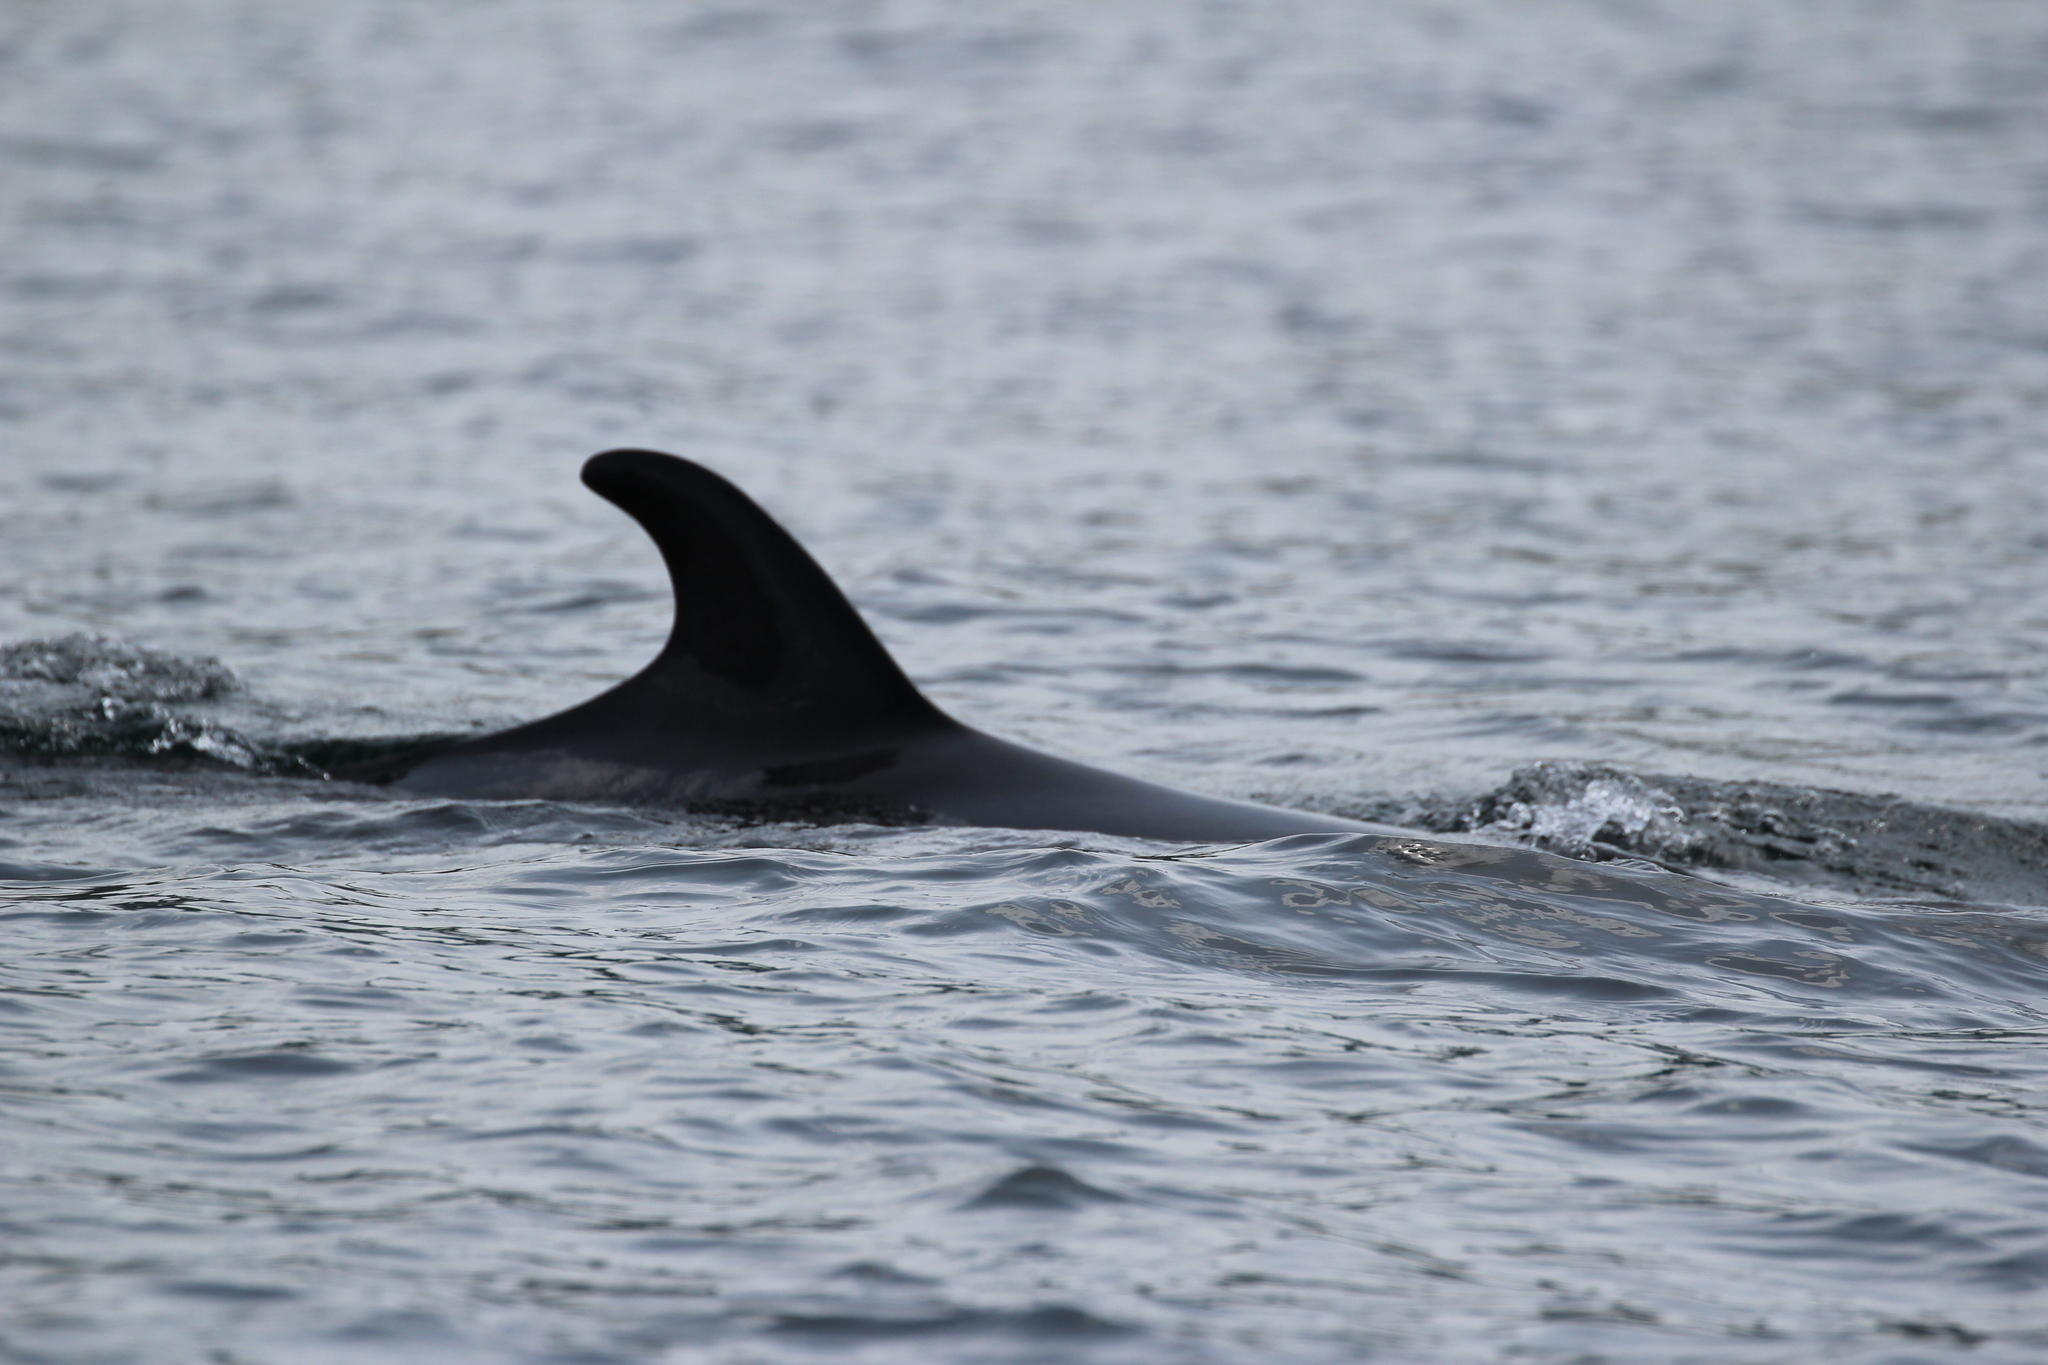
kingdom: Animalia
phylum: Chordata
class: Mammalia
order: Cetacea
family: Balaenopteridae
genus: Balaenoptera
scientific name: Balaenoptera acutorostrata
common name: Common minke whale
